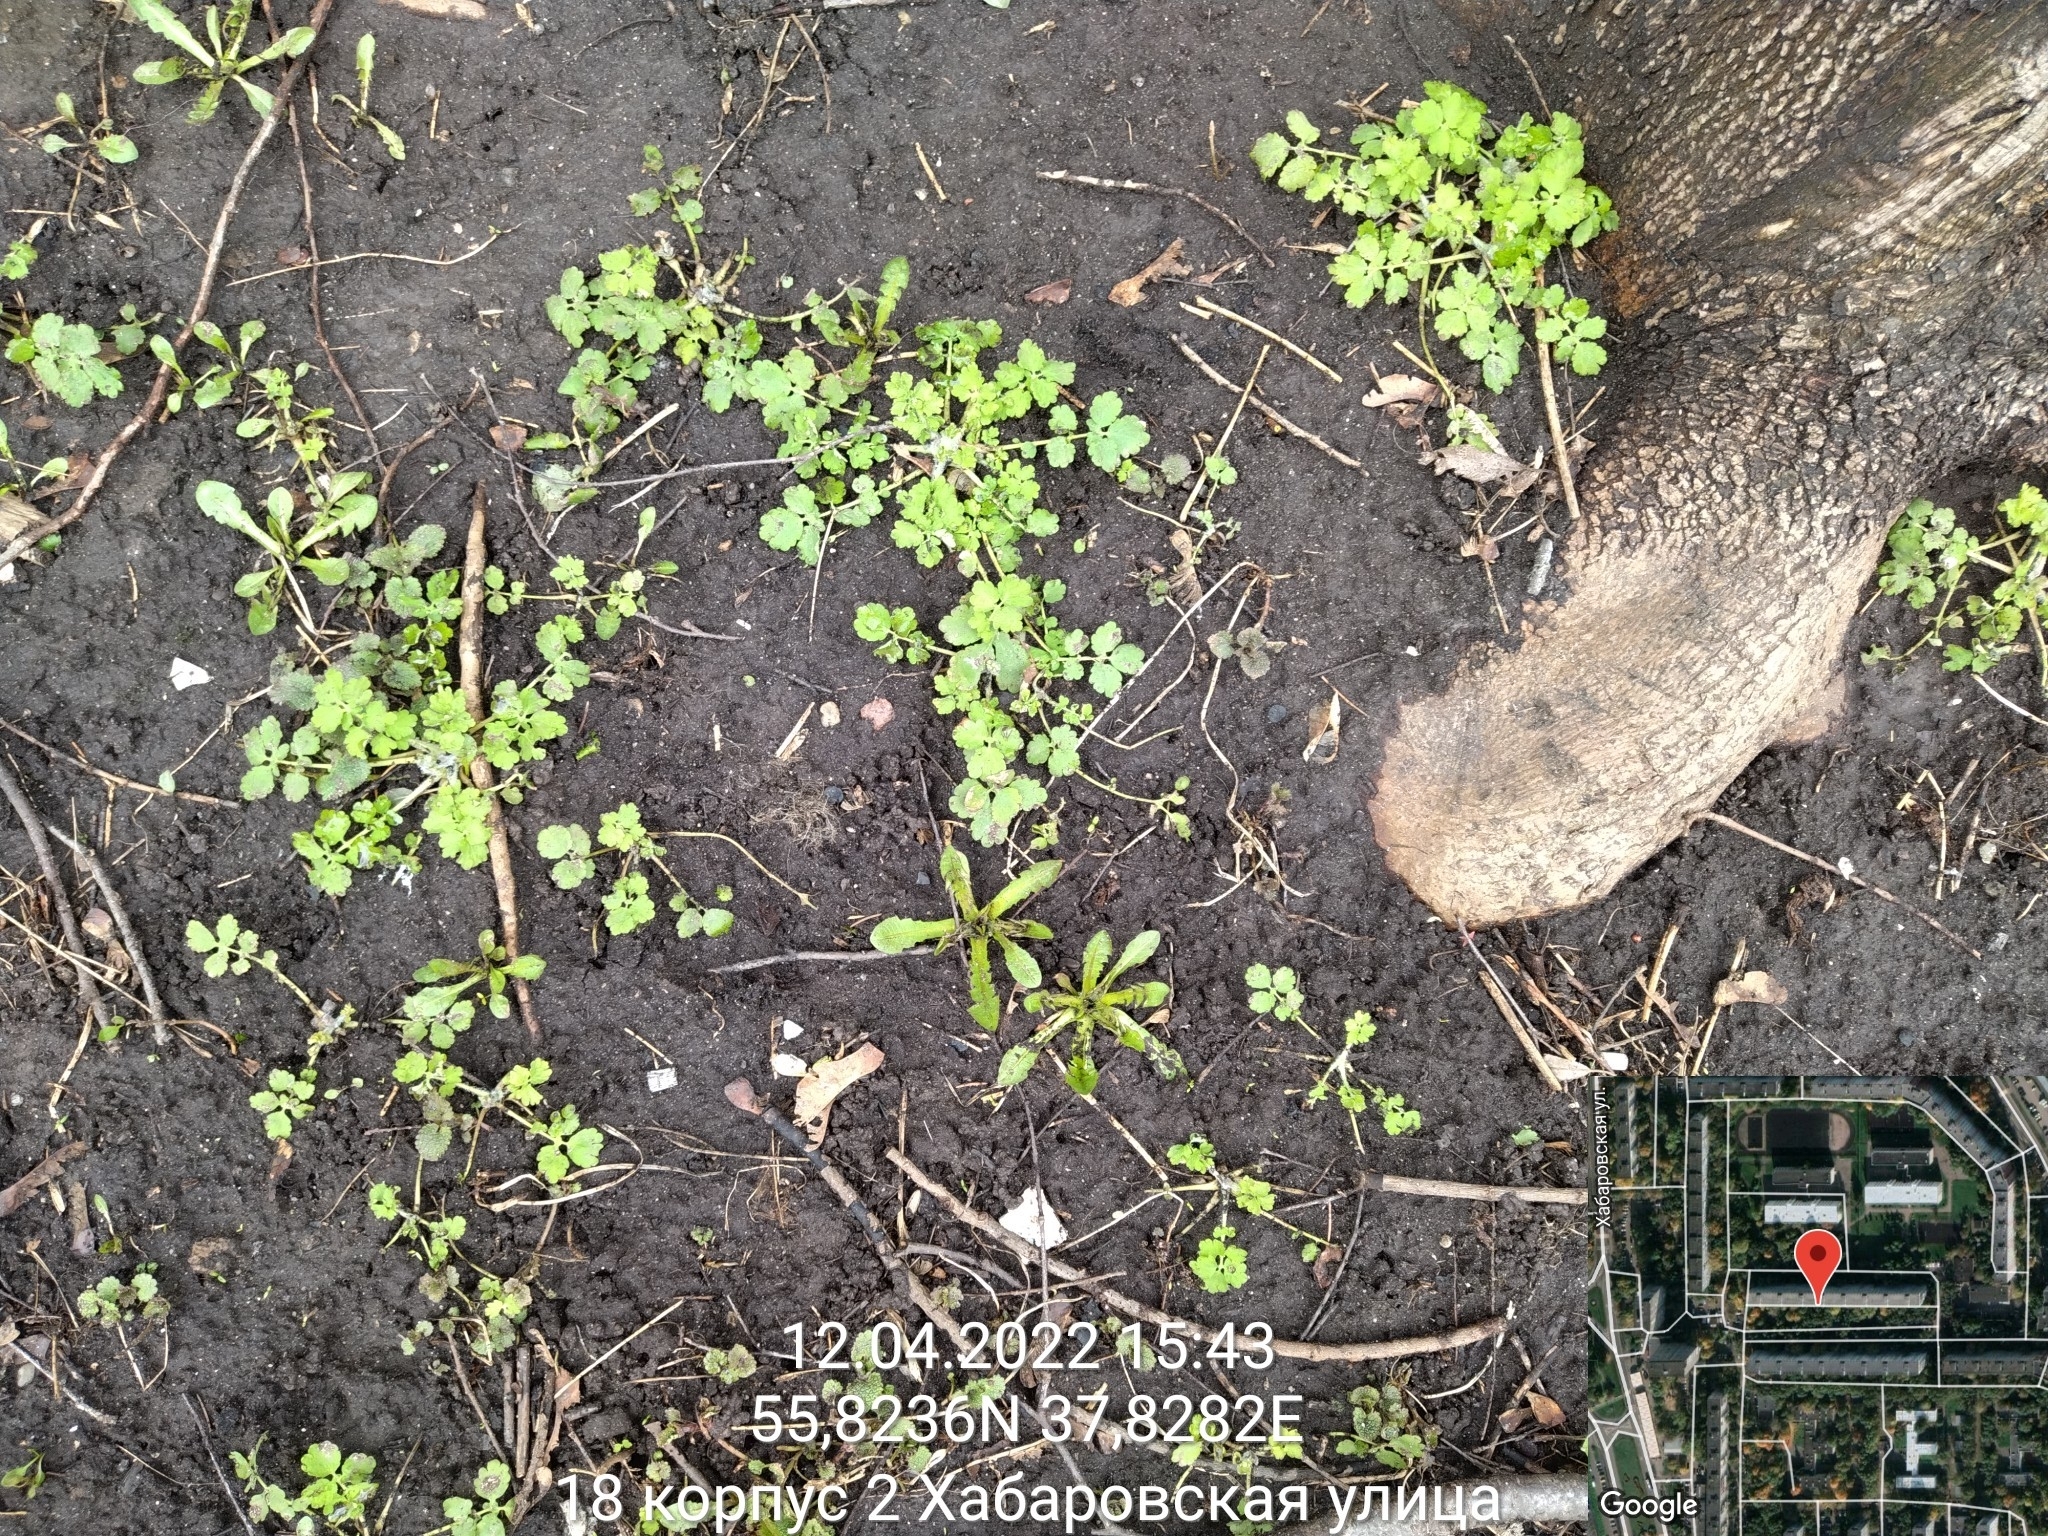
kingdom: Plantae
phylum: Tracheophyta
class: Magnoliopsida
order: Ranunculales
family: Papaveraceae
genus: Chelidonium
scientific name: Chelidonium majus
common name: Greater celandine
